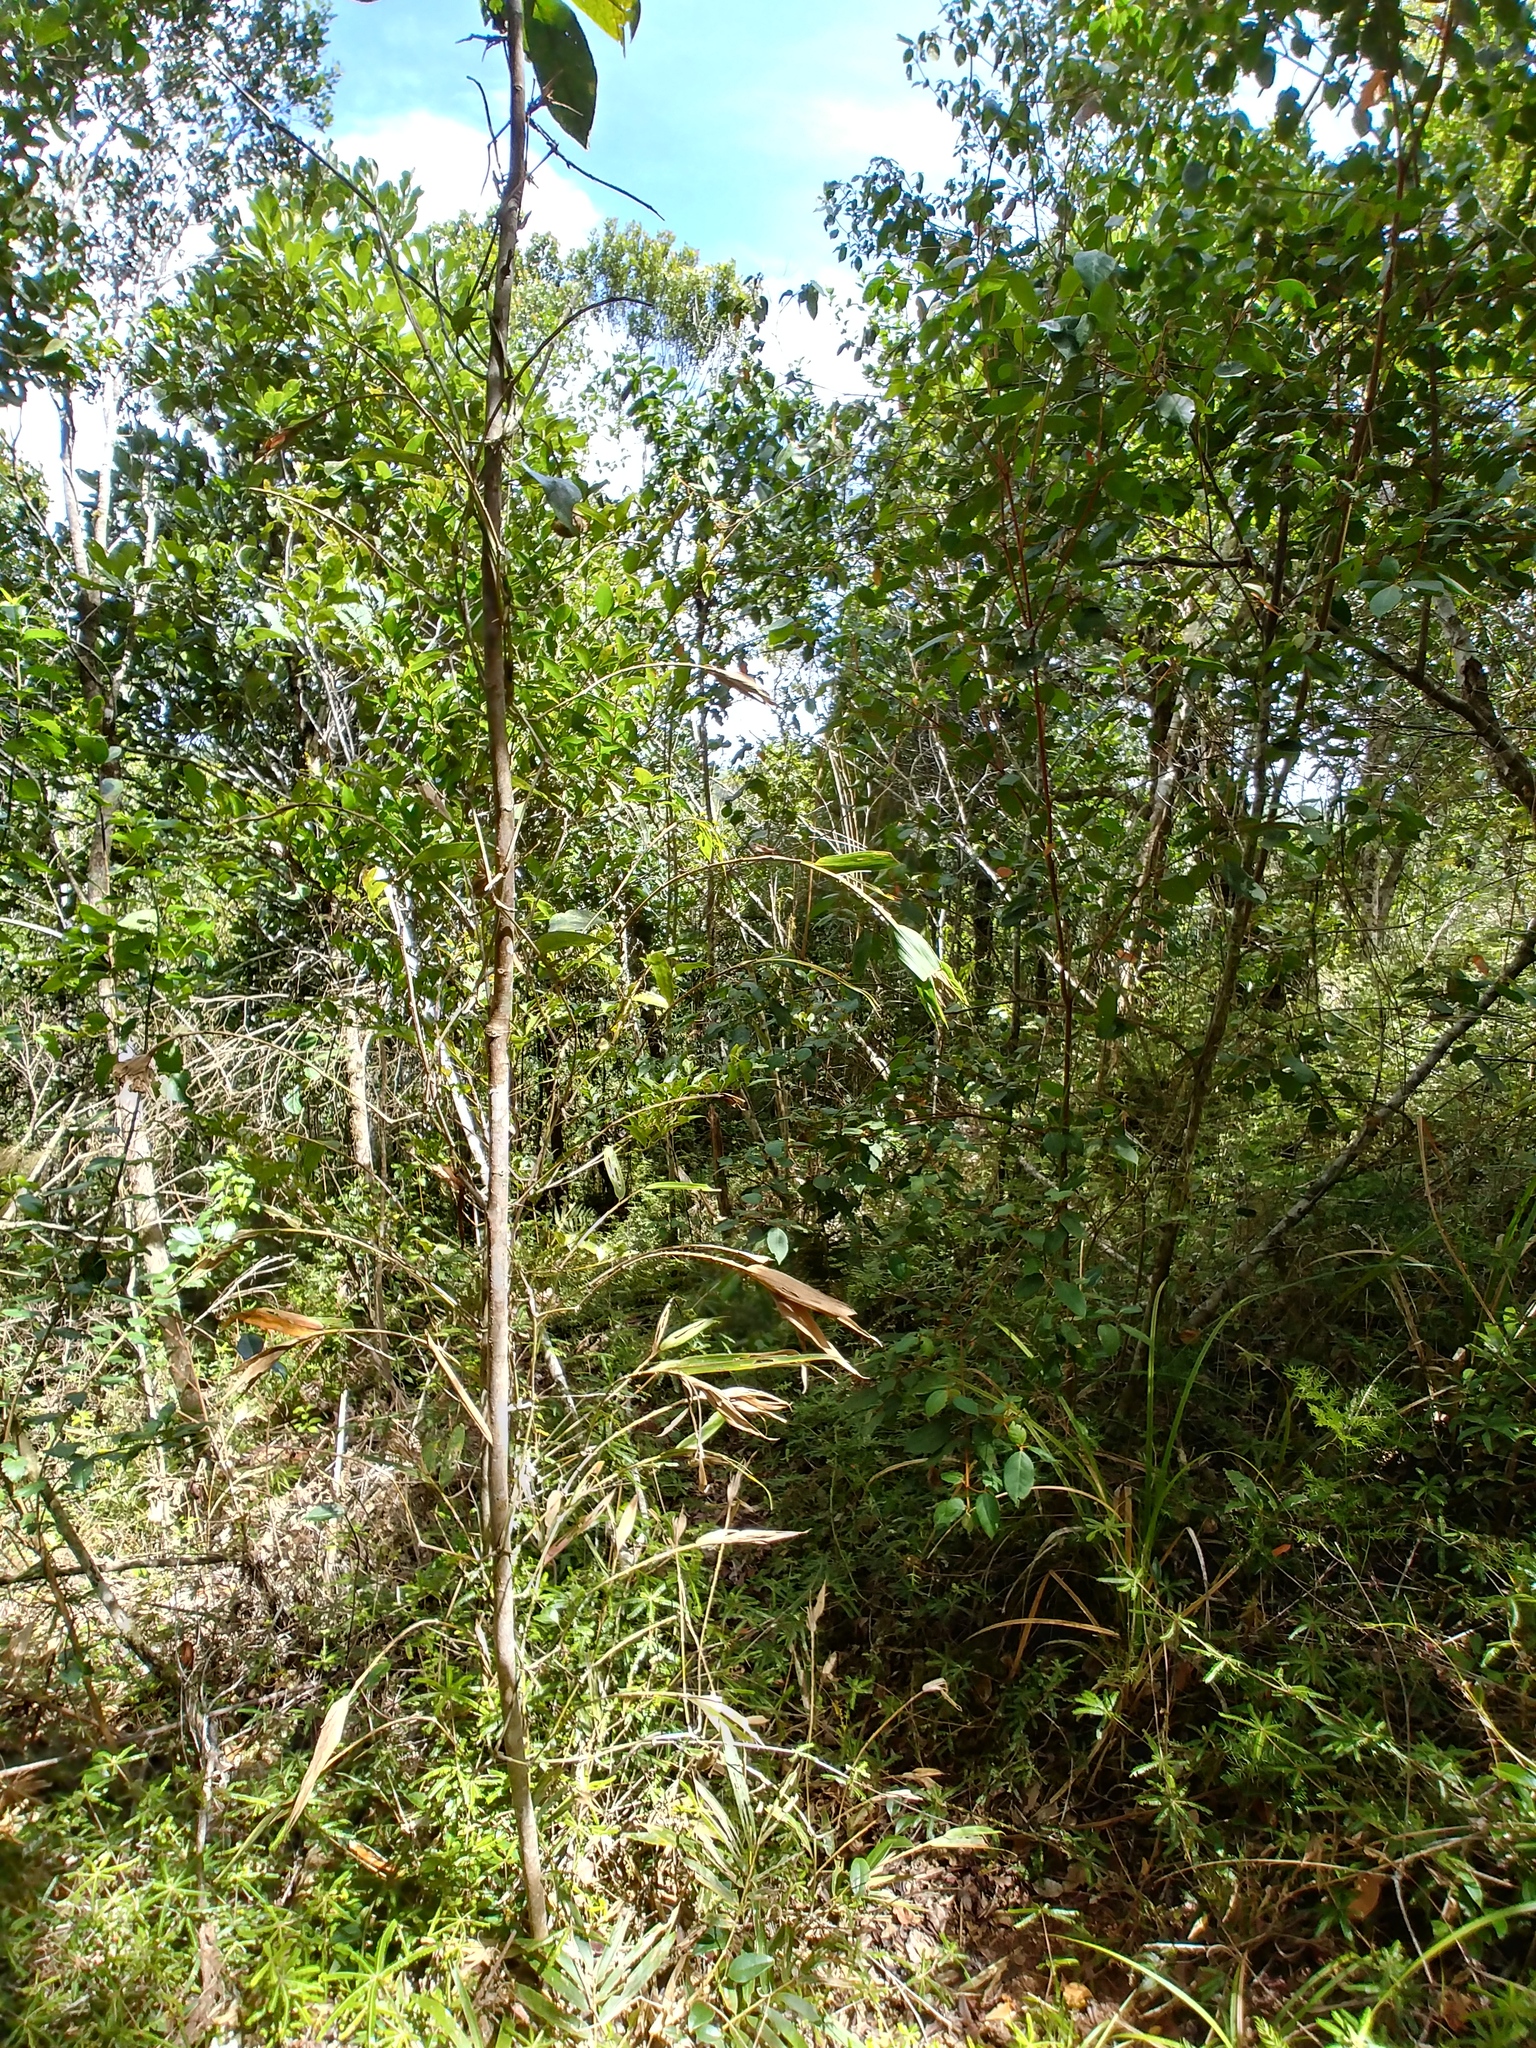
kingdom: Plantae
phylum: Tracheophyta
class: Liliopsida
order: Poales
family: Poaceae
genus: Sokinochloa
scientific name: Sokinochloa chapelieri
